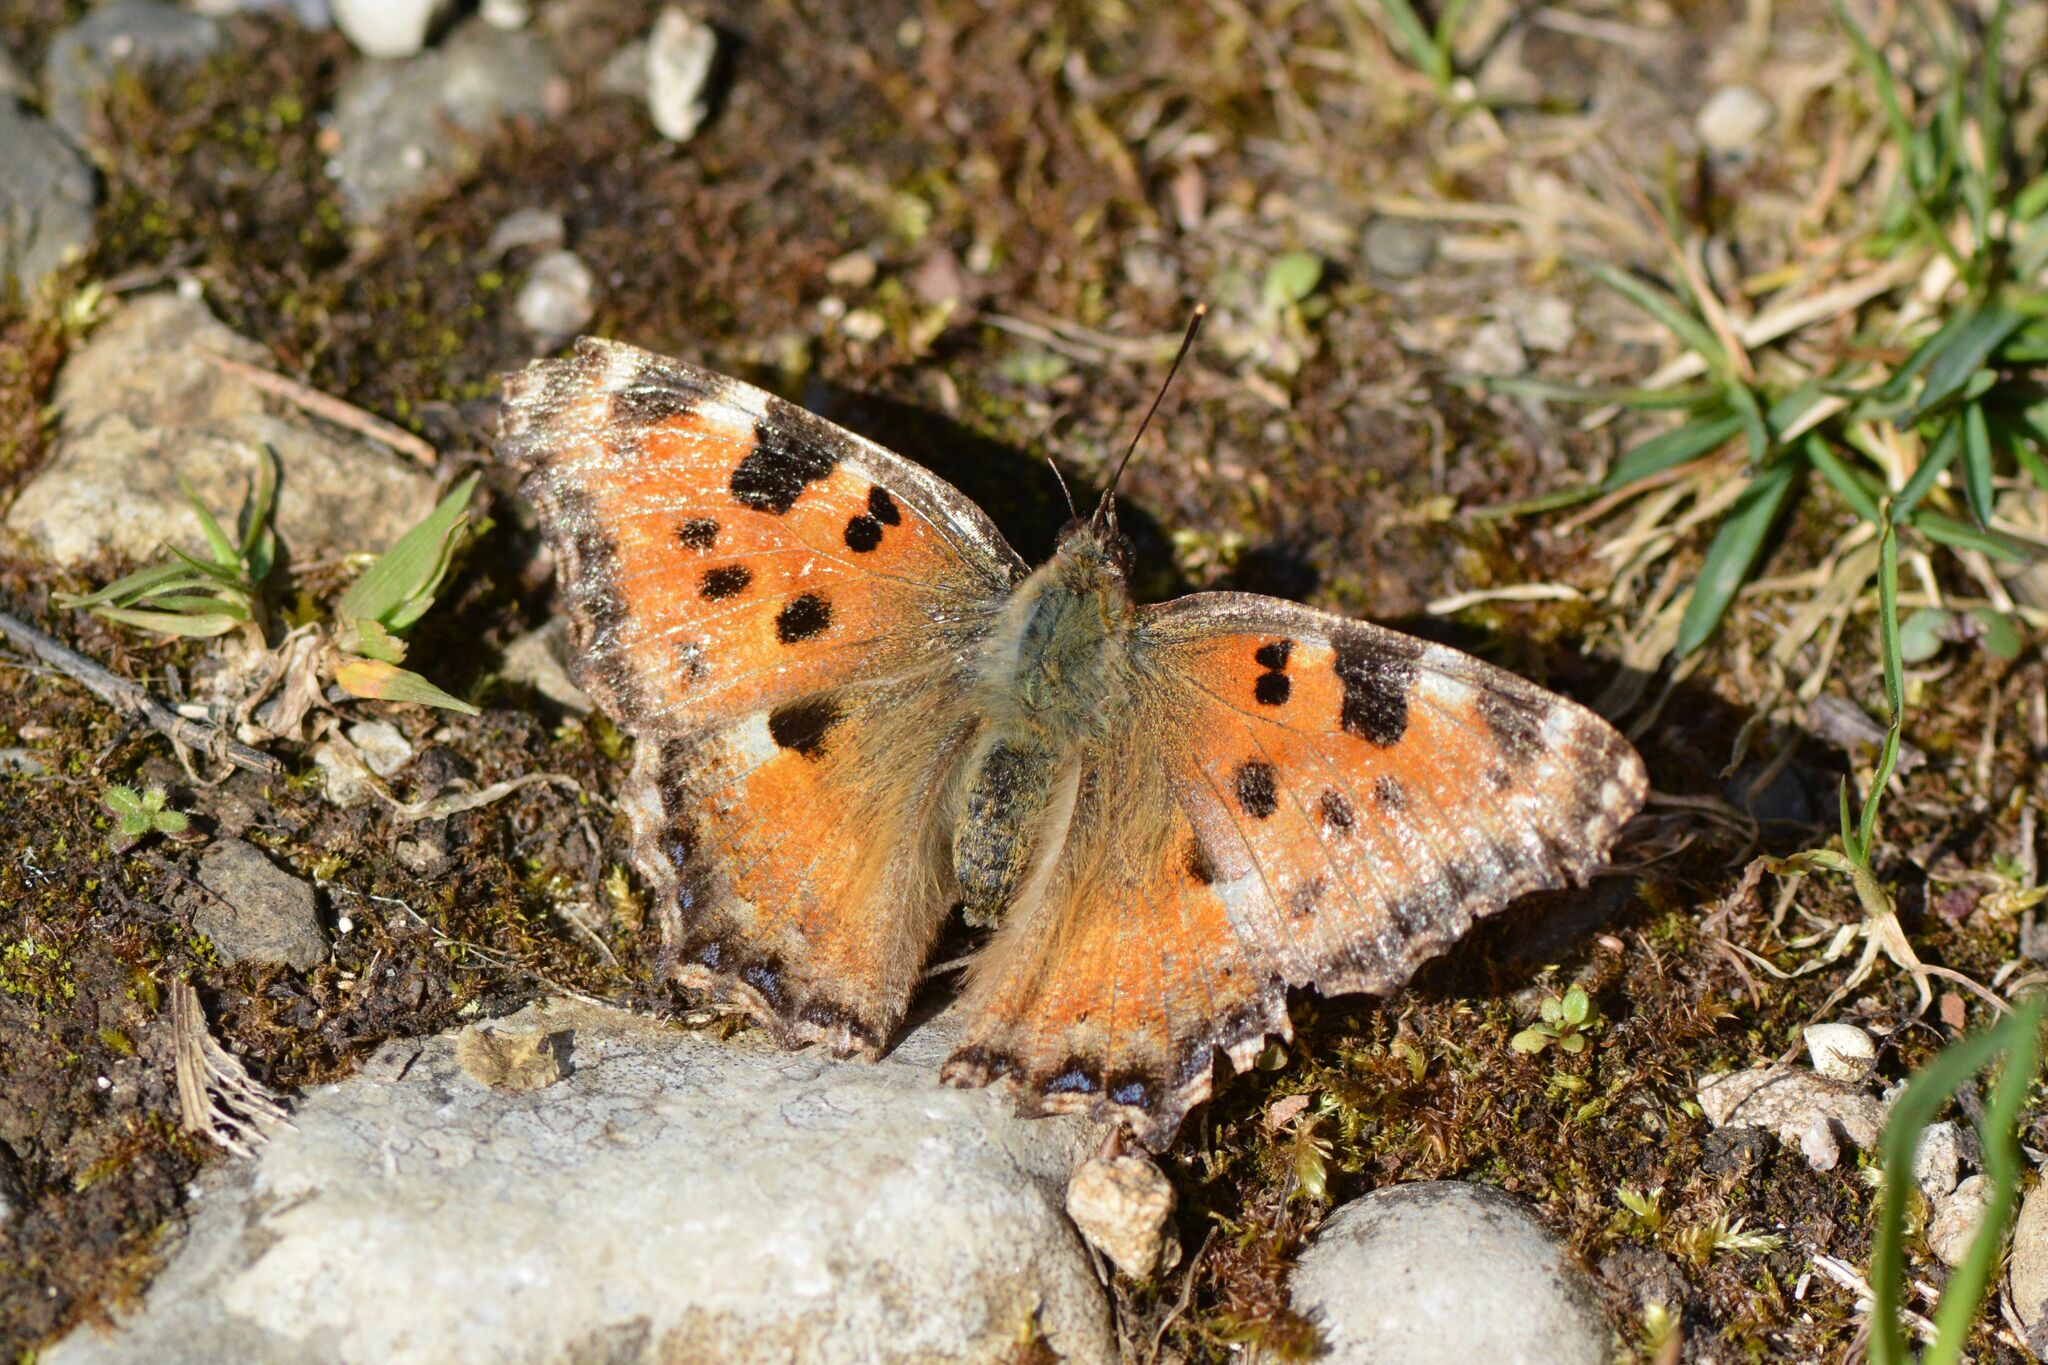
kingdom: Animalia
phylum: Arthropoda
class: Insecta
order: Lepidoptera
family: Nymphalidae
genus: Nymphalis
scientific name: Nymphalis polychloros
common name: Large tortoiseshell
